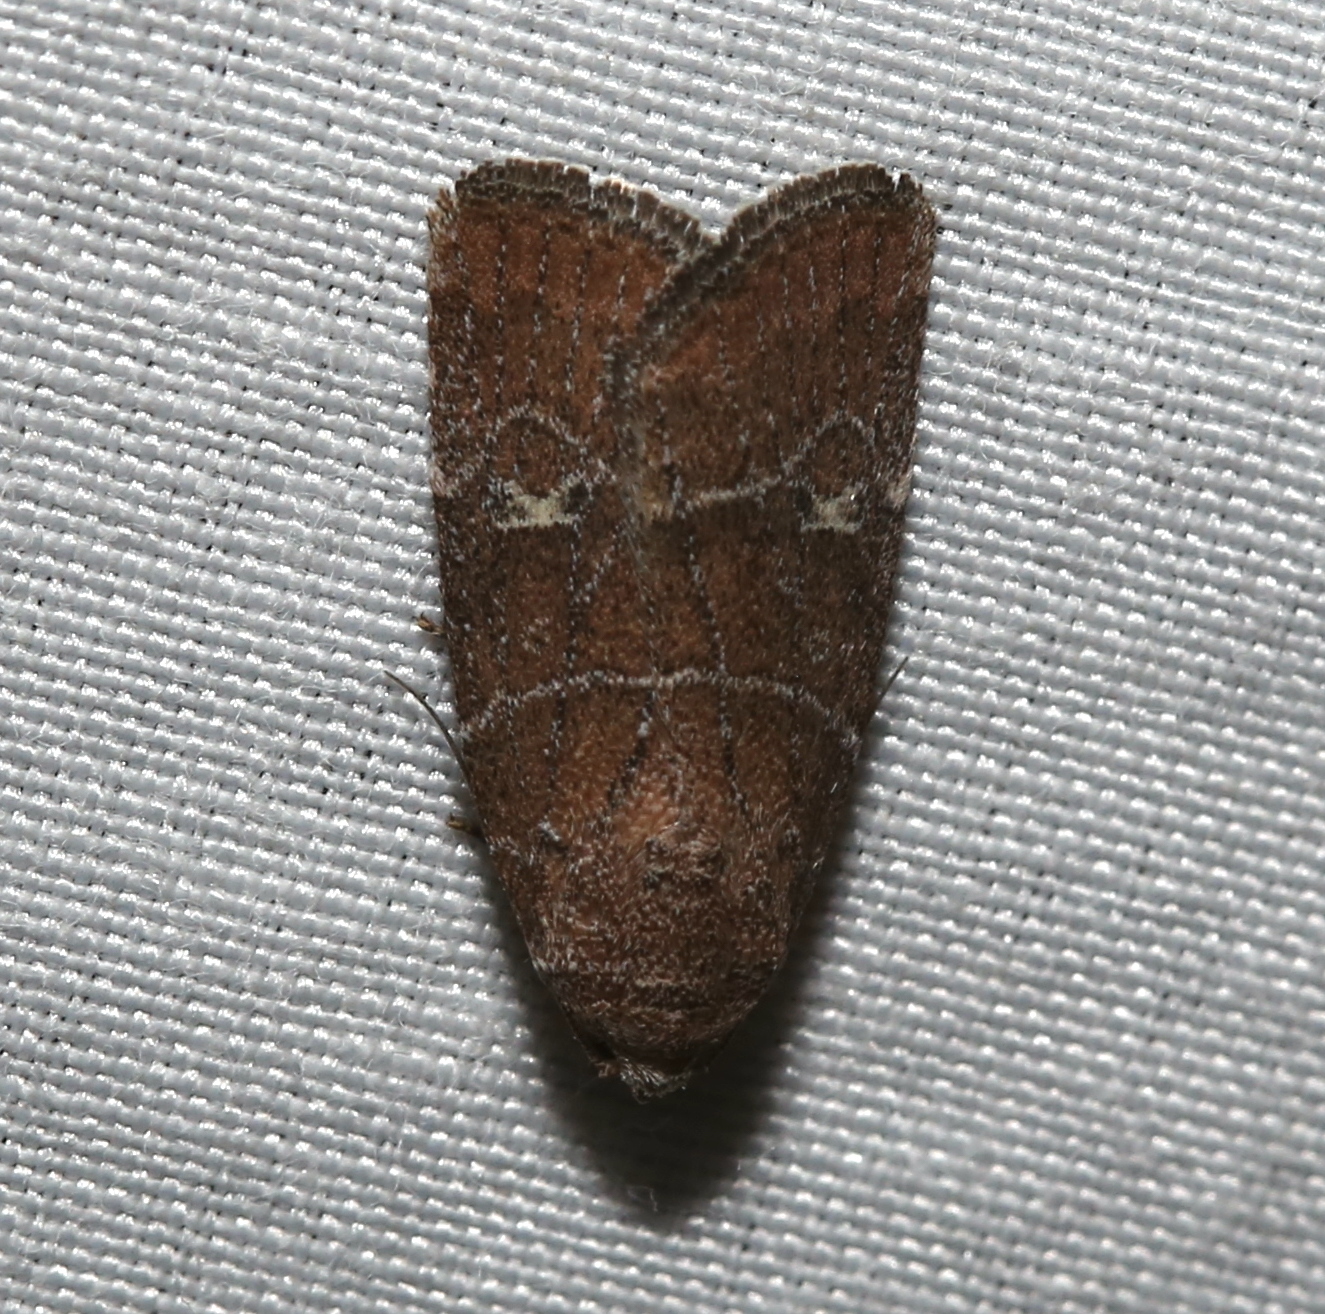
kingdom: Animalia
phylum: Arthropoda
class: Insecta
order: Lepidoptera
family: Noctuidae
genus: Elaphria
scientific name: Elaphria grata
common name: Grateful midget moth
